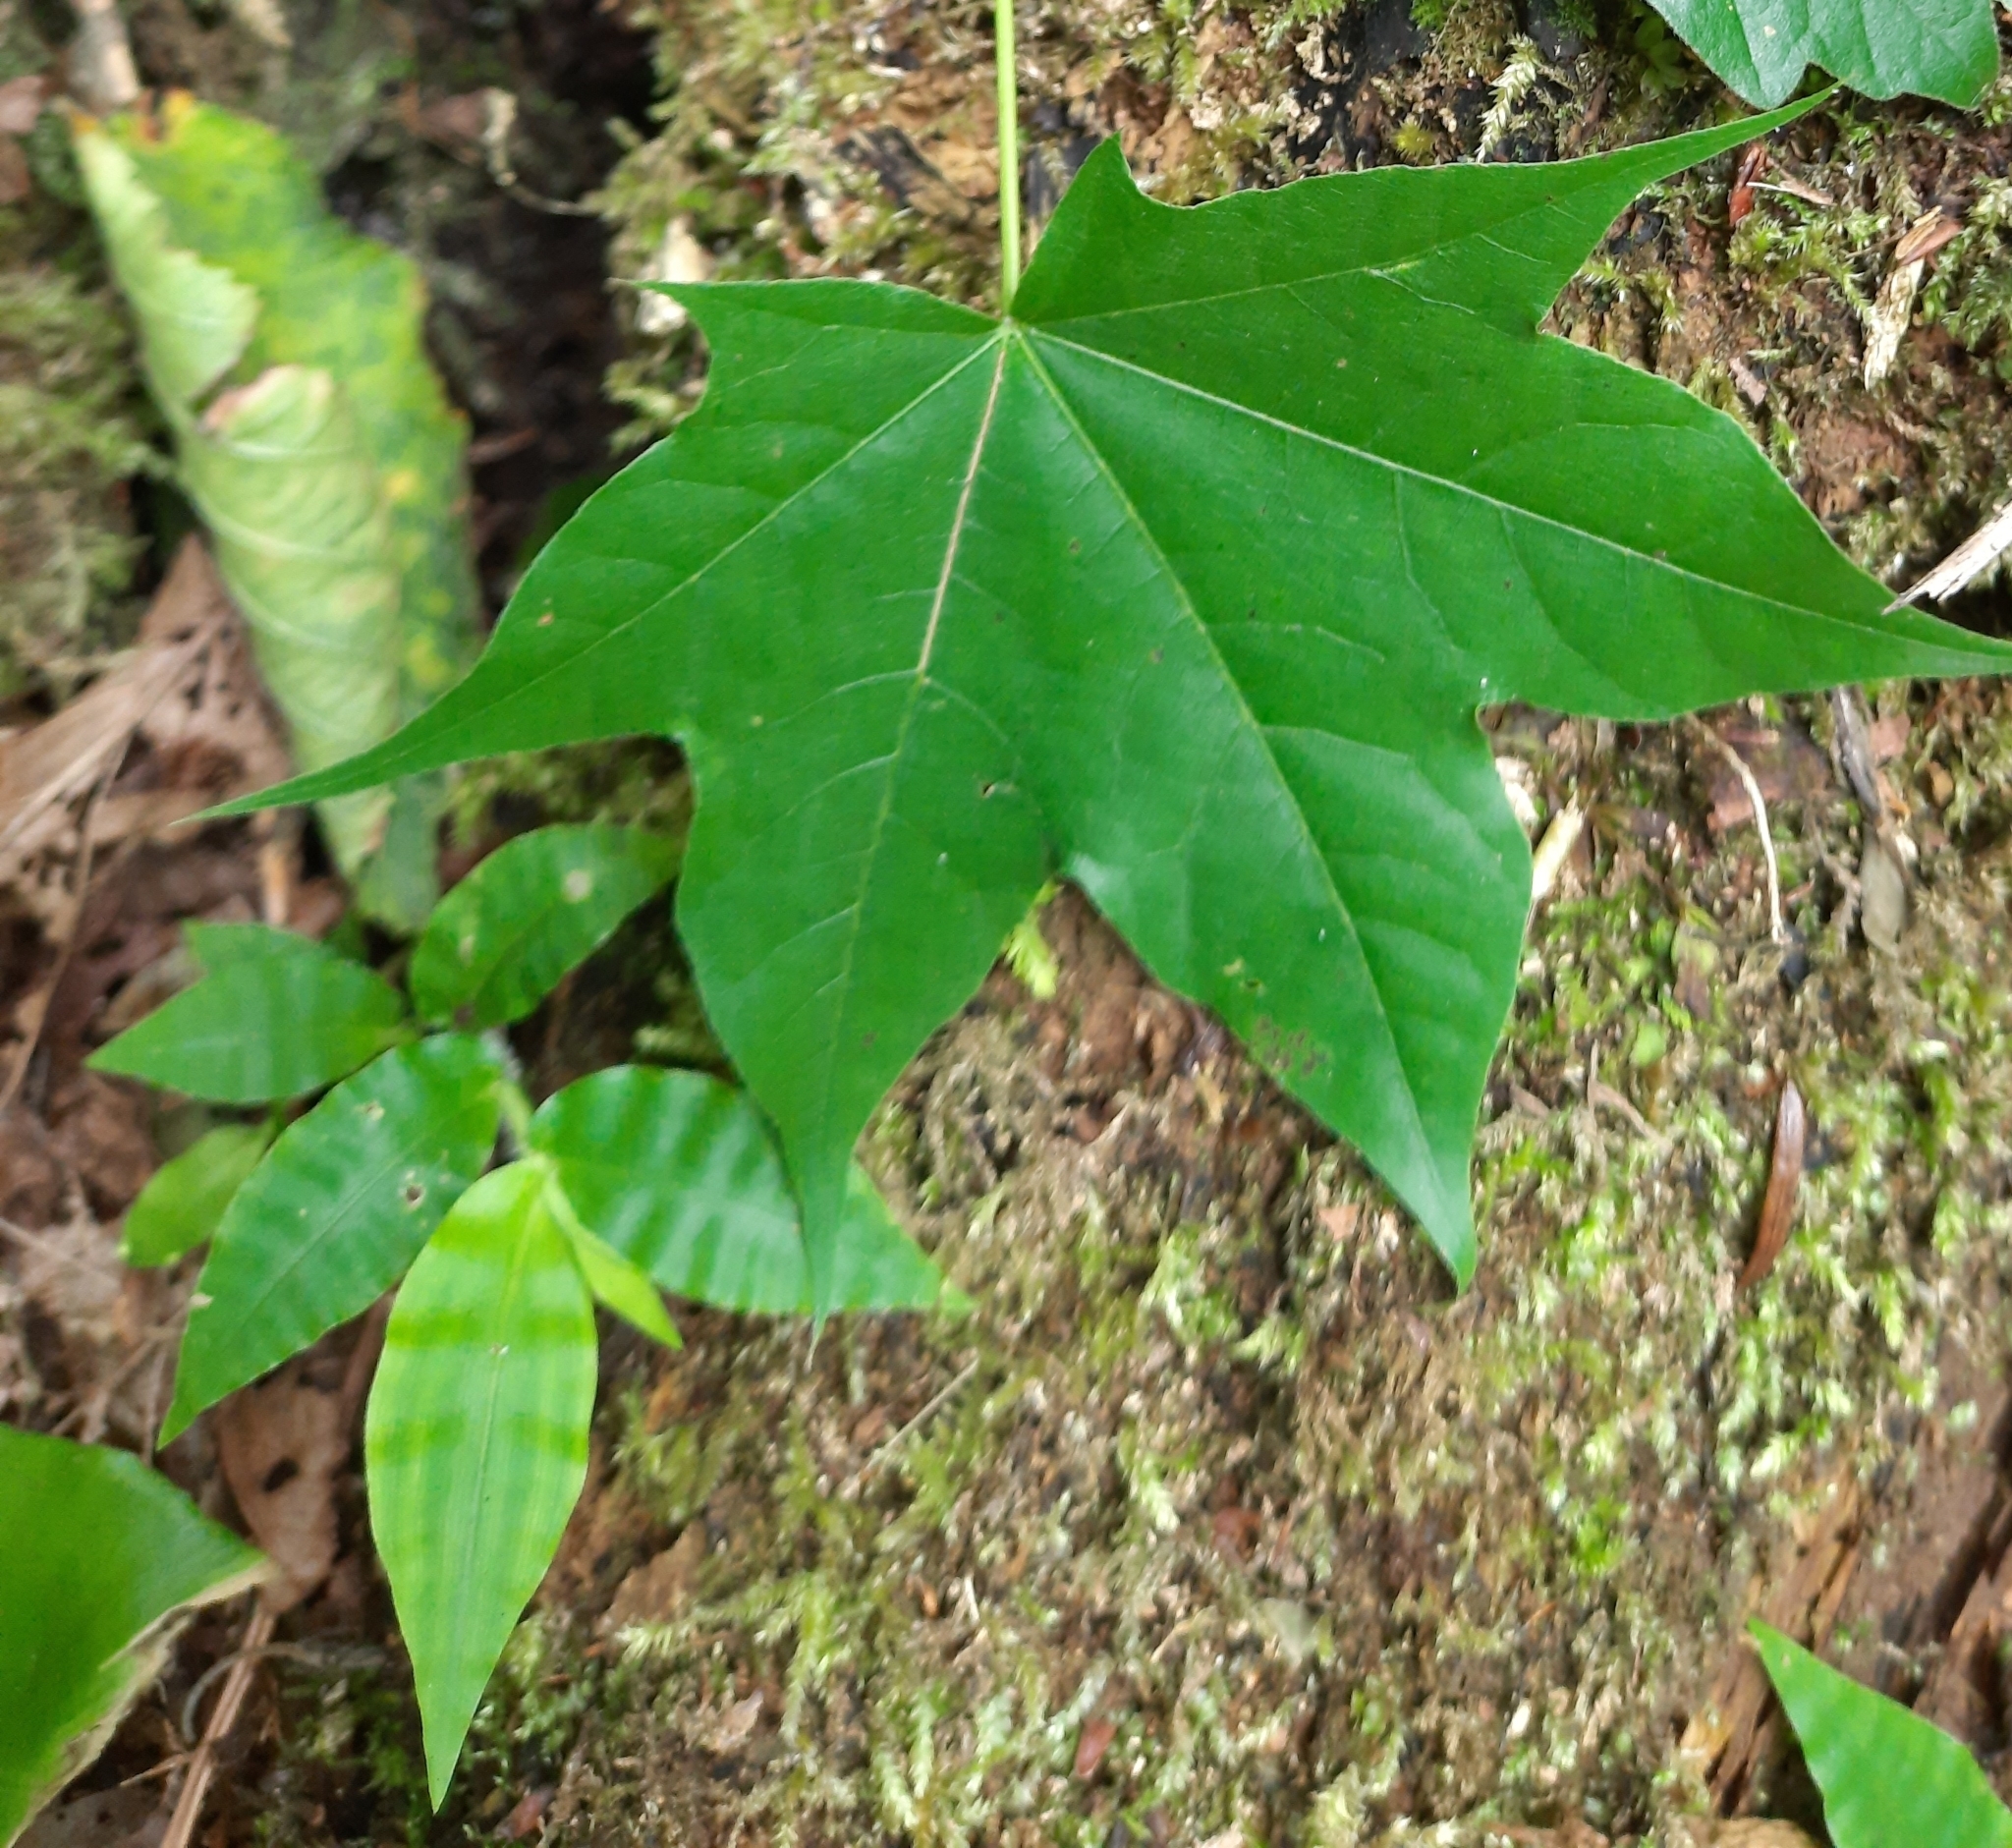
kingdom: Plantae
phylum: Tracheophyta
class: Magnoliopsida
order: Sapindales
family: Sapindaceae
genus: Acer
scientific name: Acer cappadocicum
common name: Cappadocian maple
